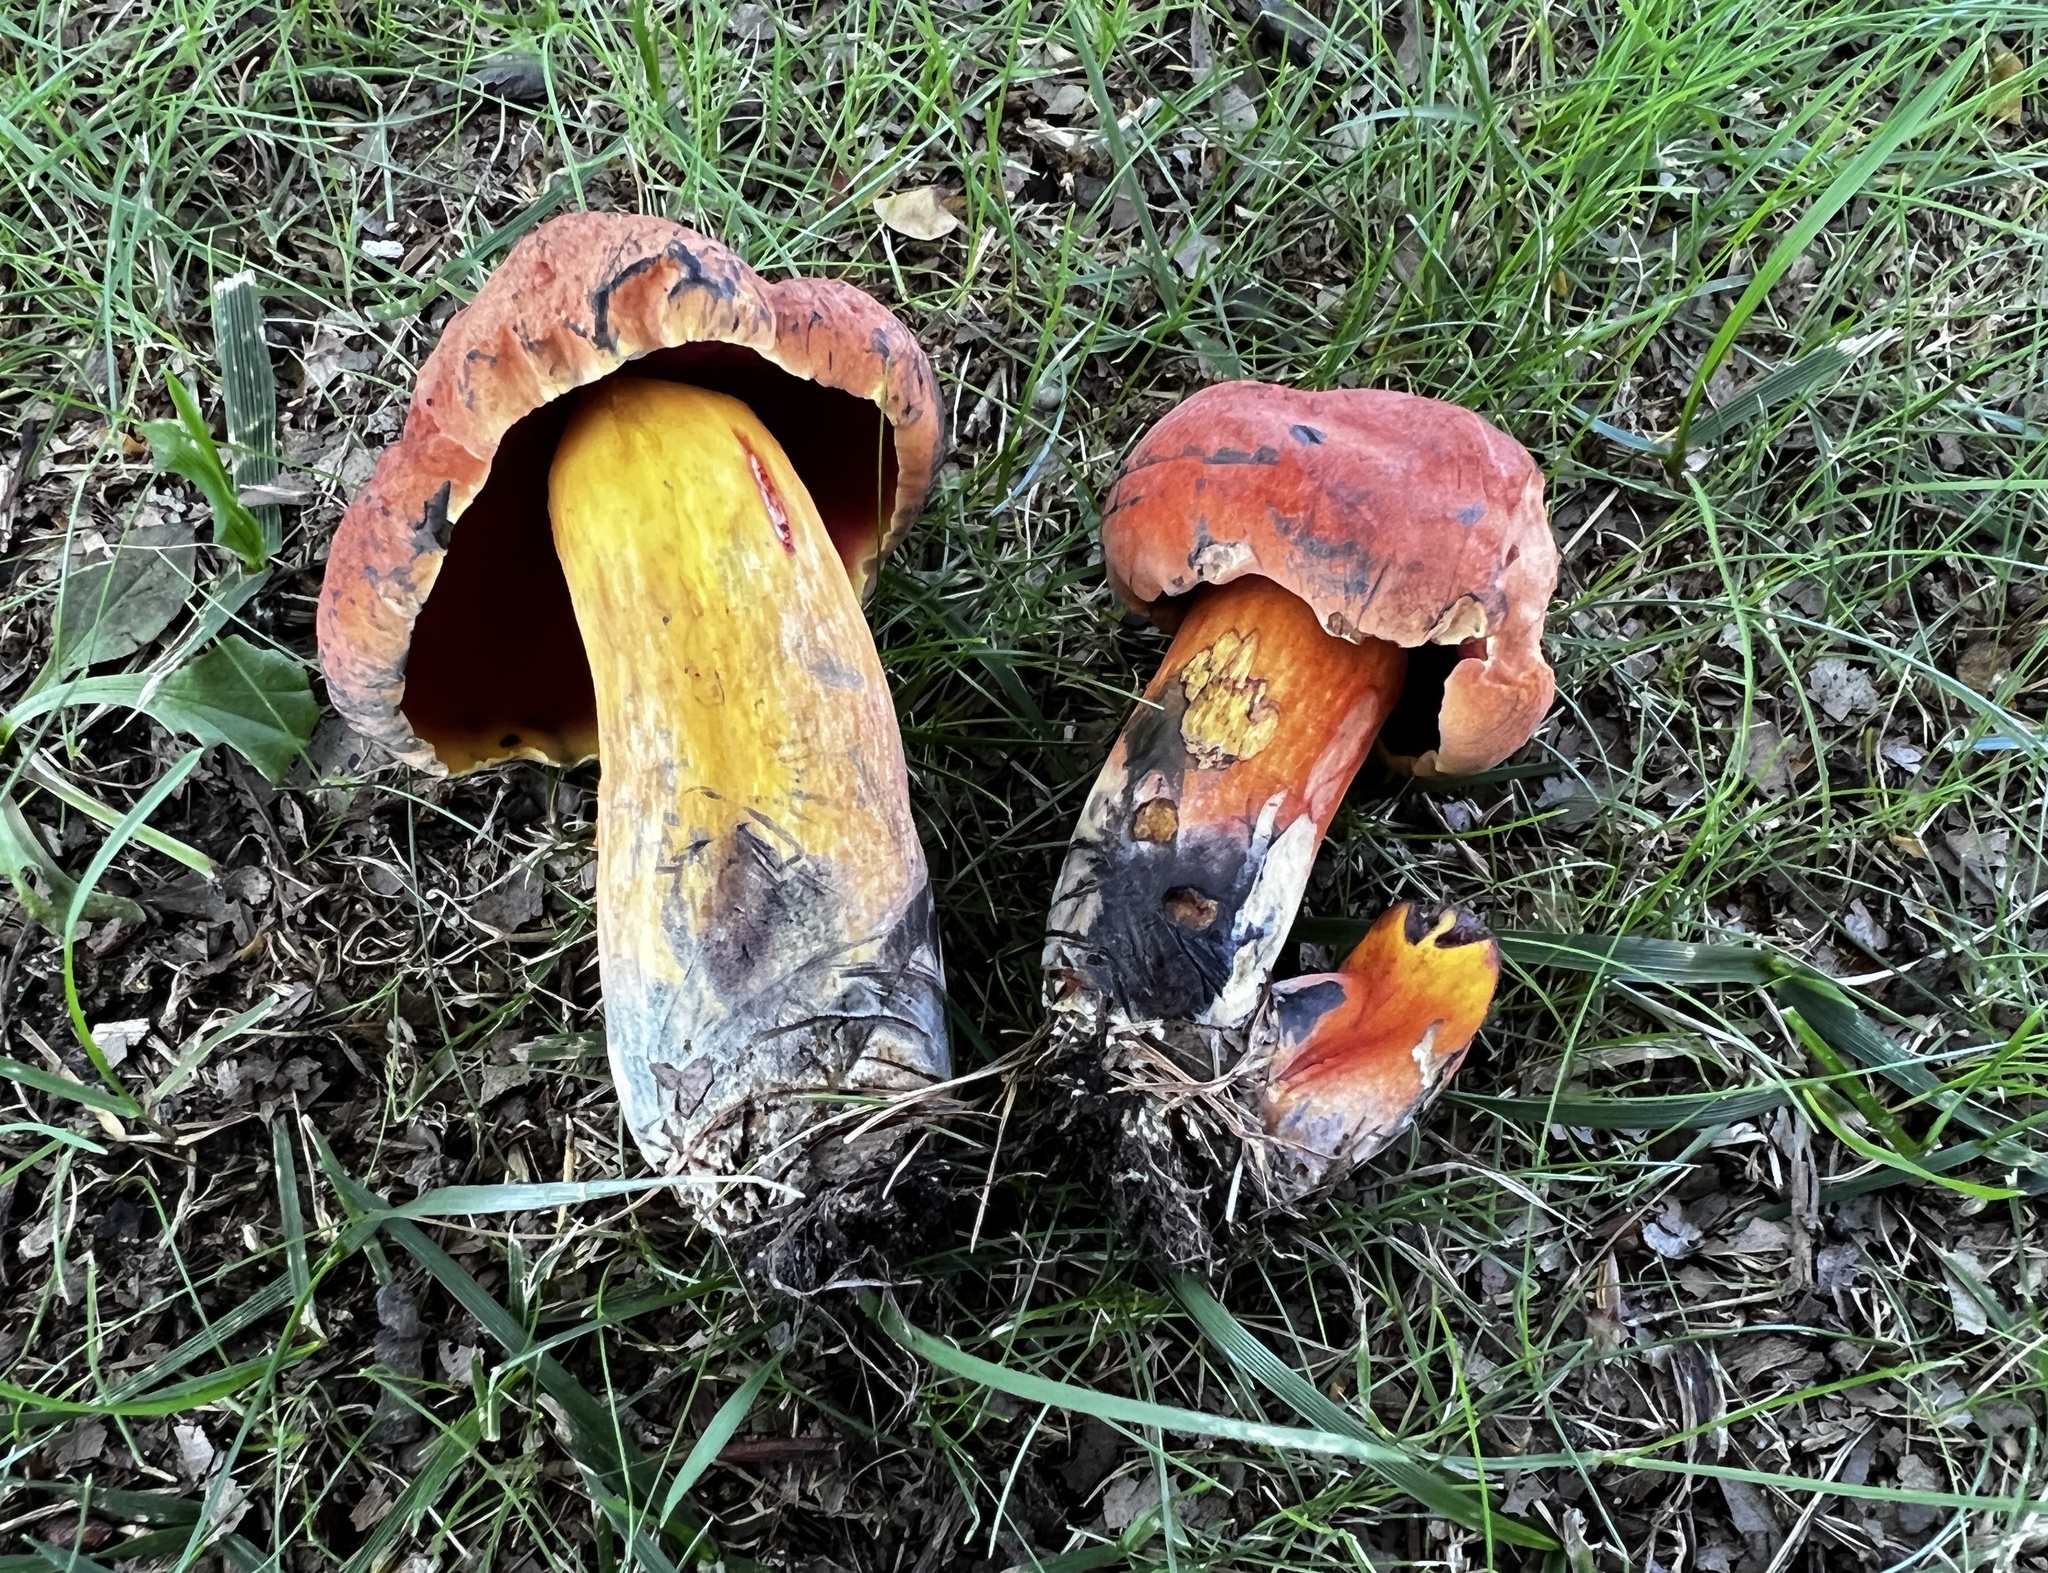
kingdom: Fungi
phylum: Basidiomycota
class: Agaricomycetes
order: Boletales
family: Boletaceae
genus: Cyanoboletus
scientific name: Cyanoboletus pulverulentus
